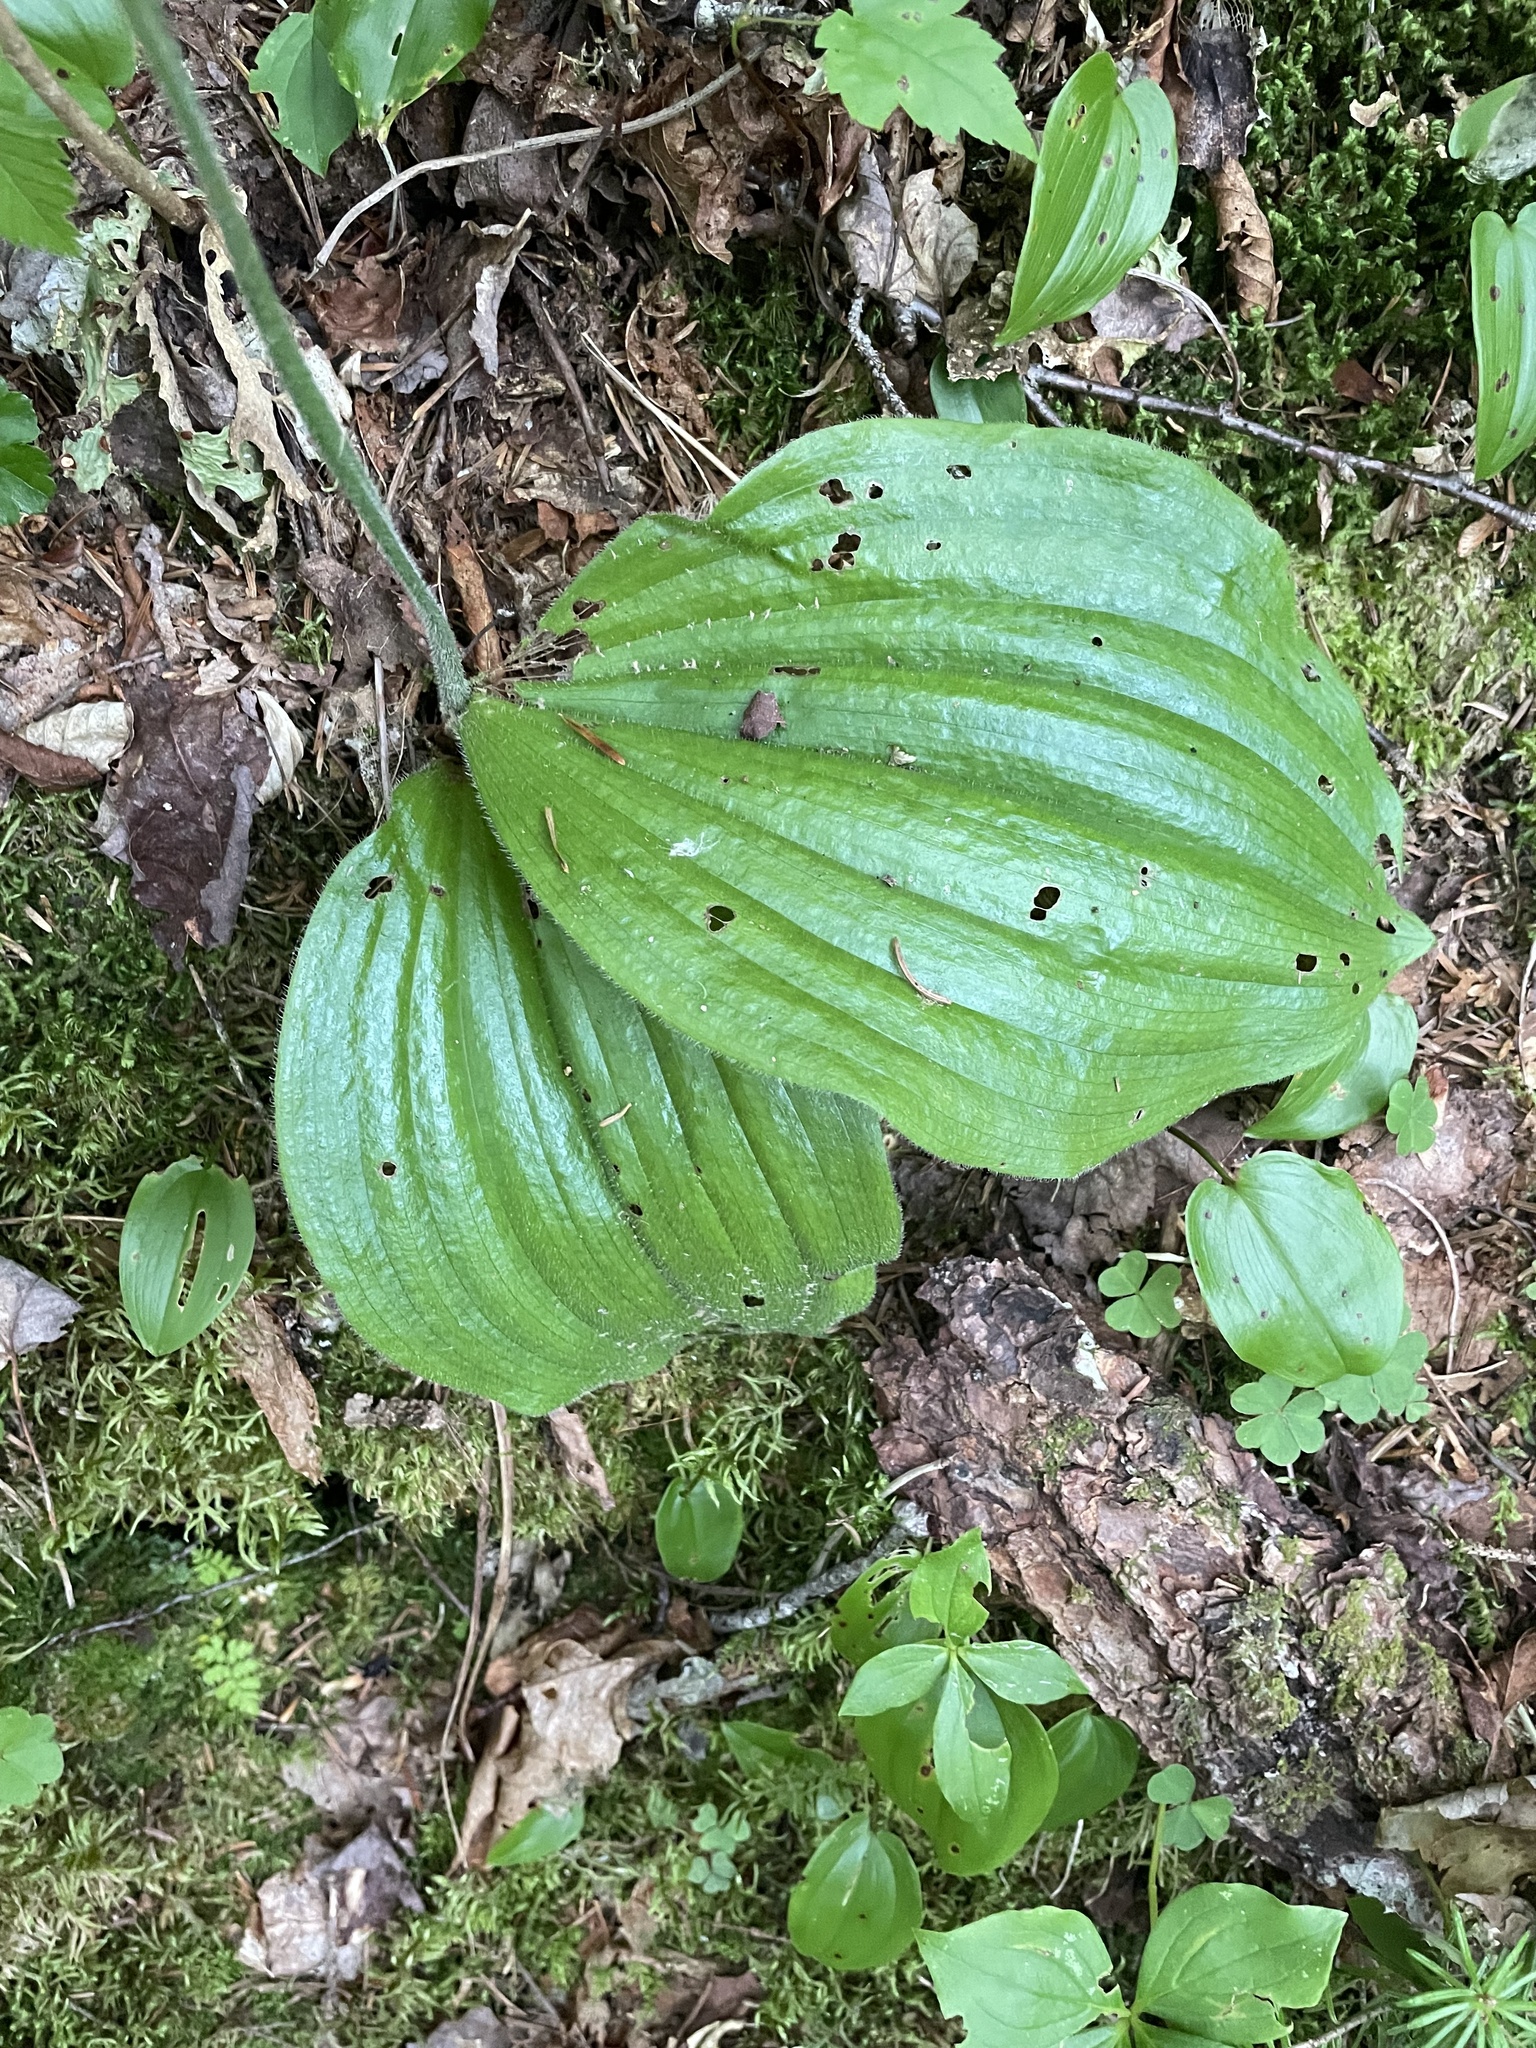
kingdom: Plantae
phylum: Tracheophyta
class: Liliopsida
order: Asparagales
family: Orchidaceae
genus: Cypripedium
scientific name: Cypripedium acaule
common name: Pink lady's-slipper
